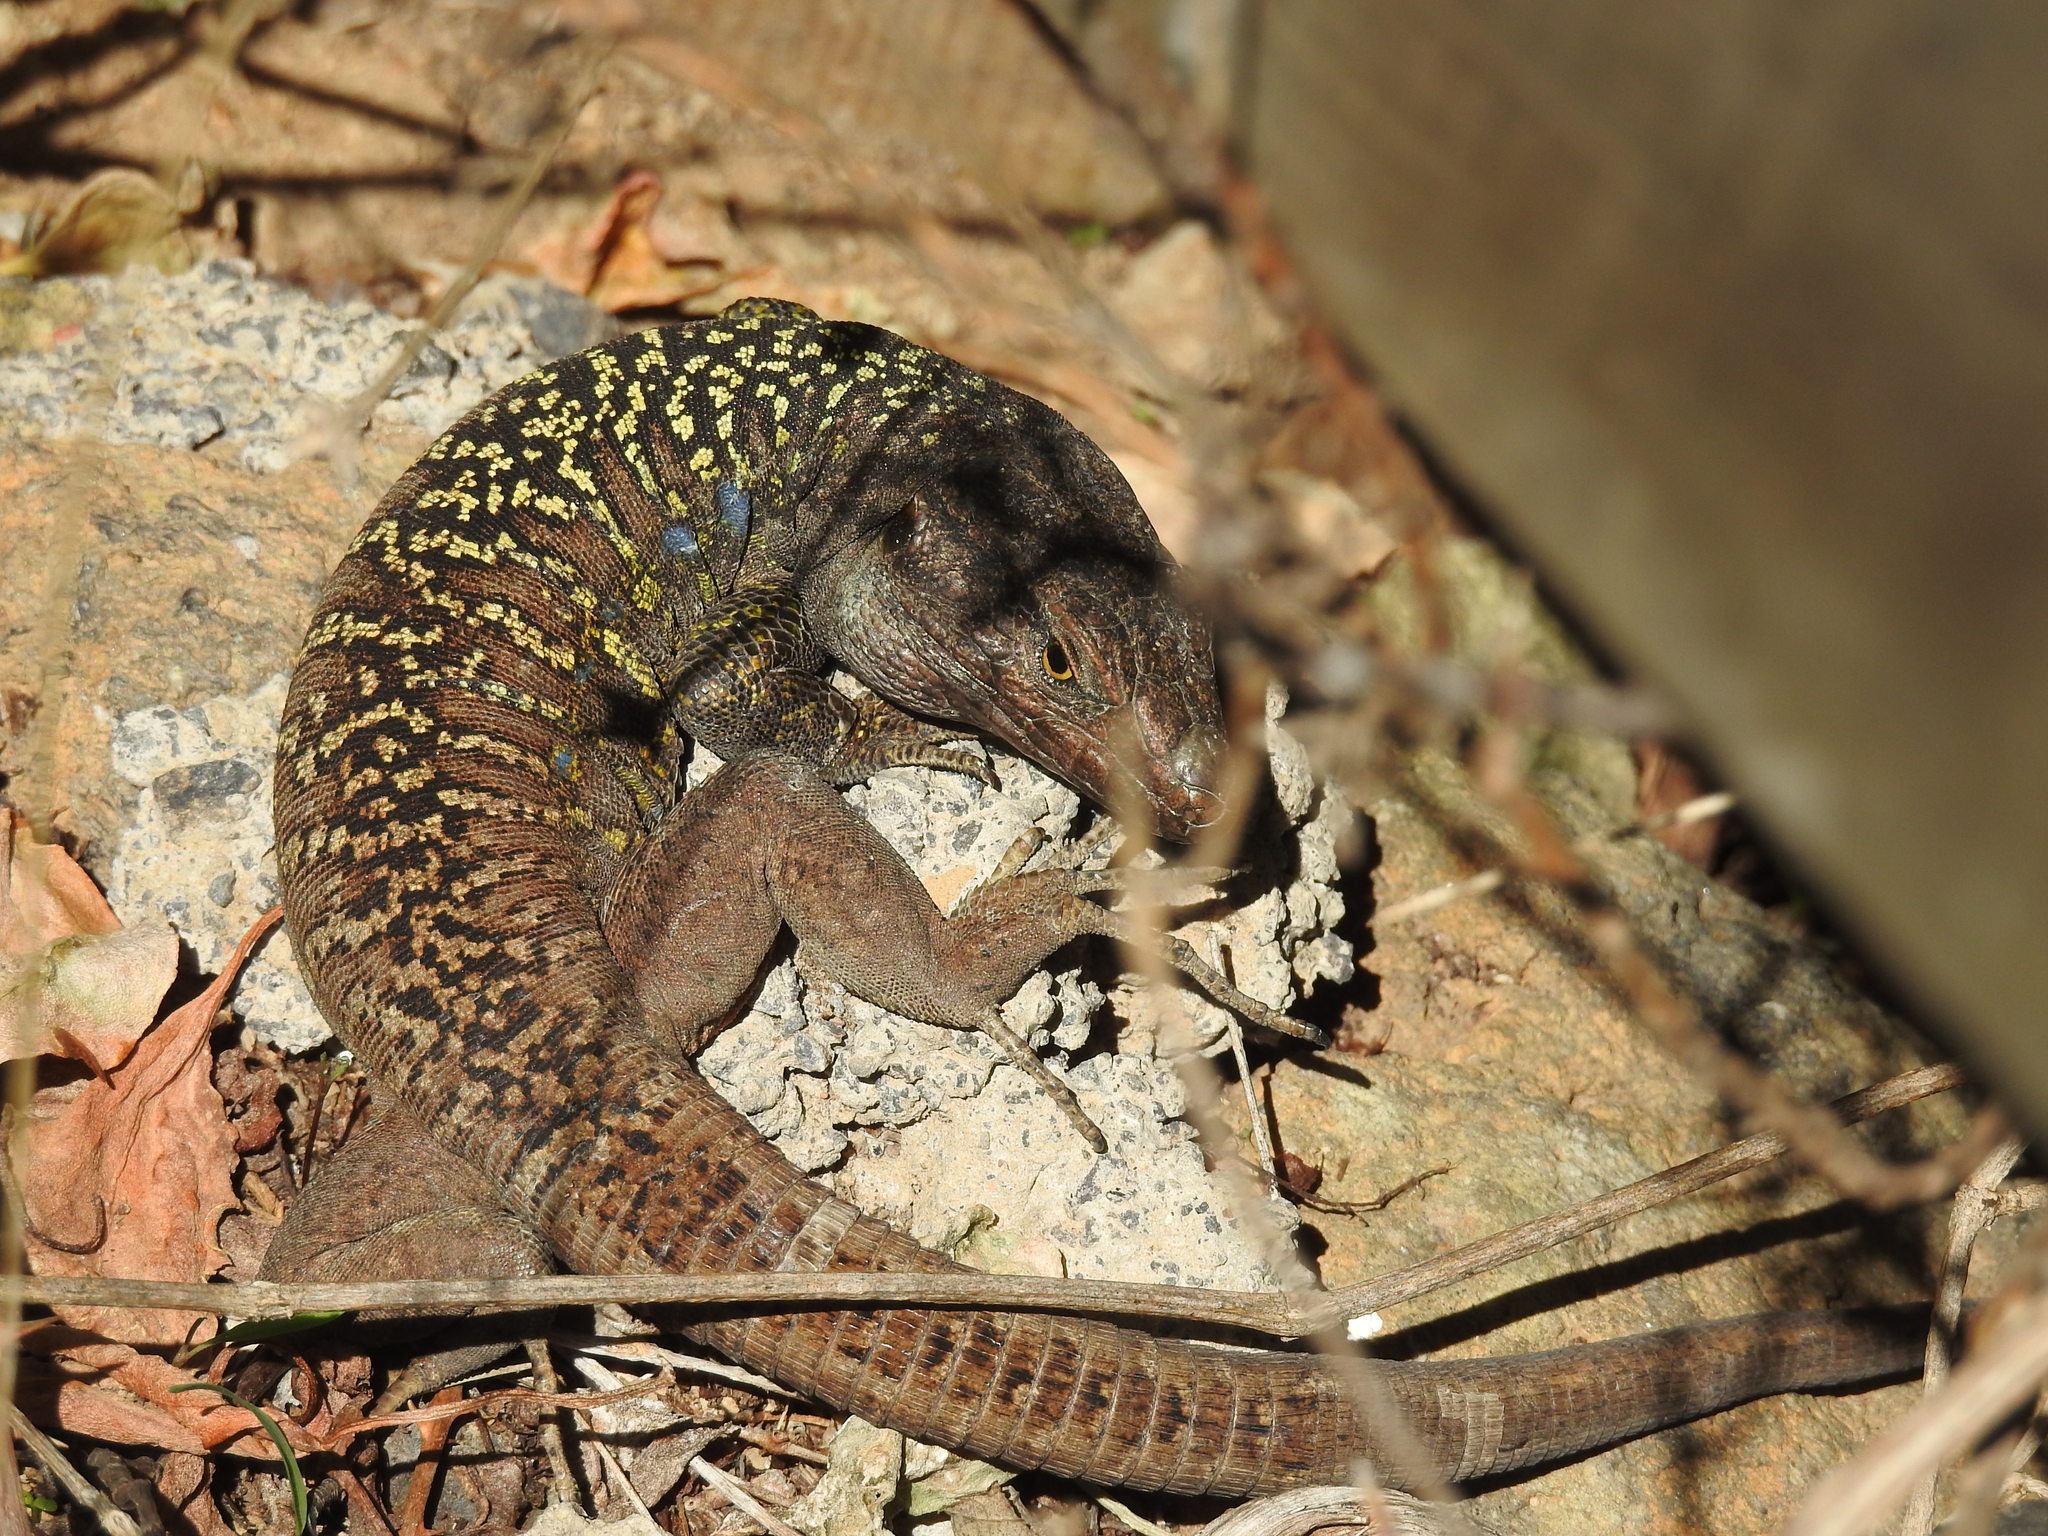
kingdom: Animalia
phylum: Chordata
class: Squamata
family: Lacertidae
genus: Gallotia
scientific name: Gallotia galloti
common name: Gallot's lizard
